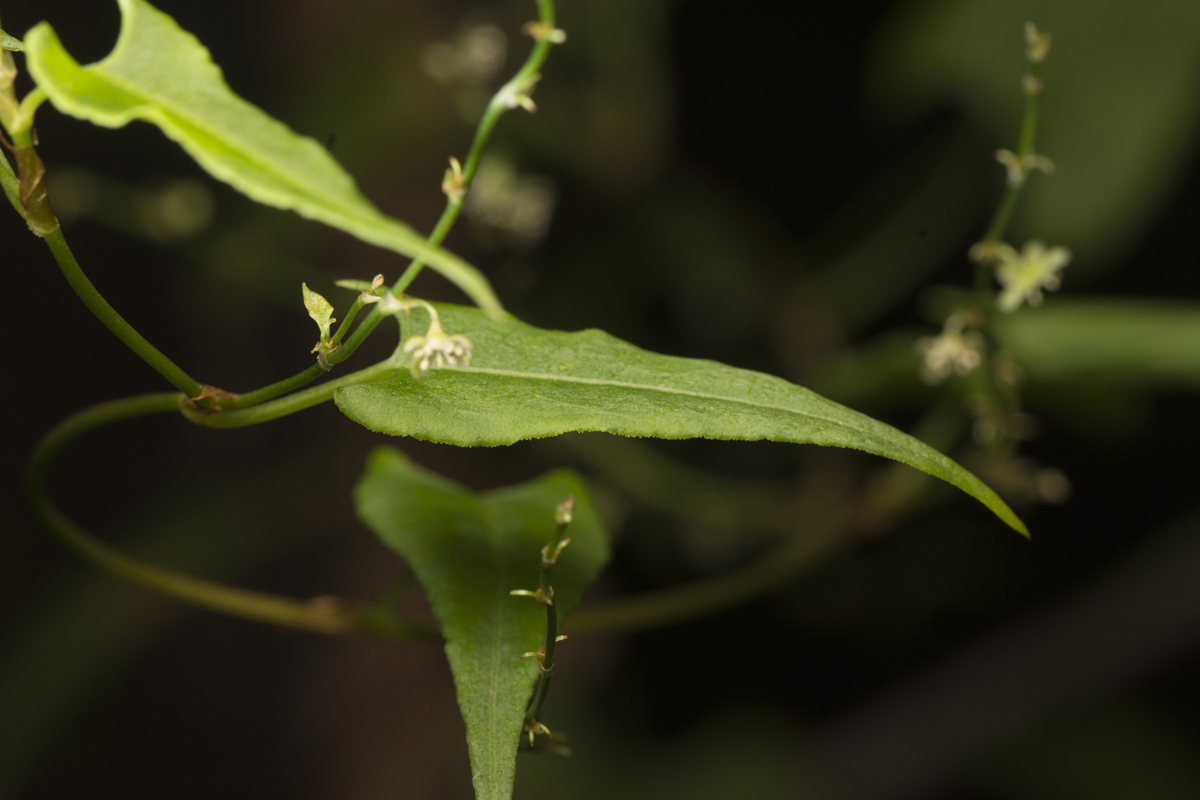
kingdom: Plantae
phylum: Tracheophyta
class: Magnoliopsida
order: Caryophyllales
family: Polygonaceae
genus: Muehlenbeckia
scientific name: Muehlenbeckia gracillima
